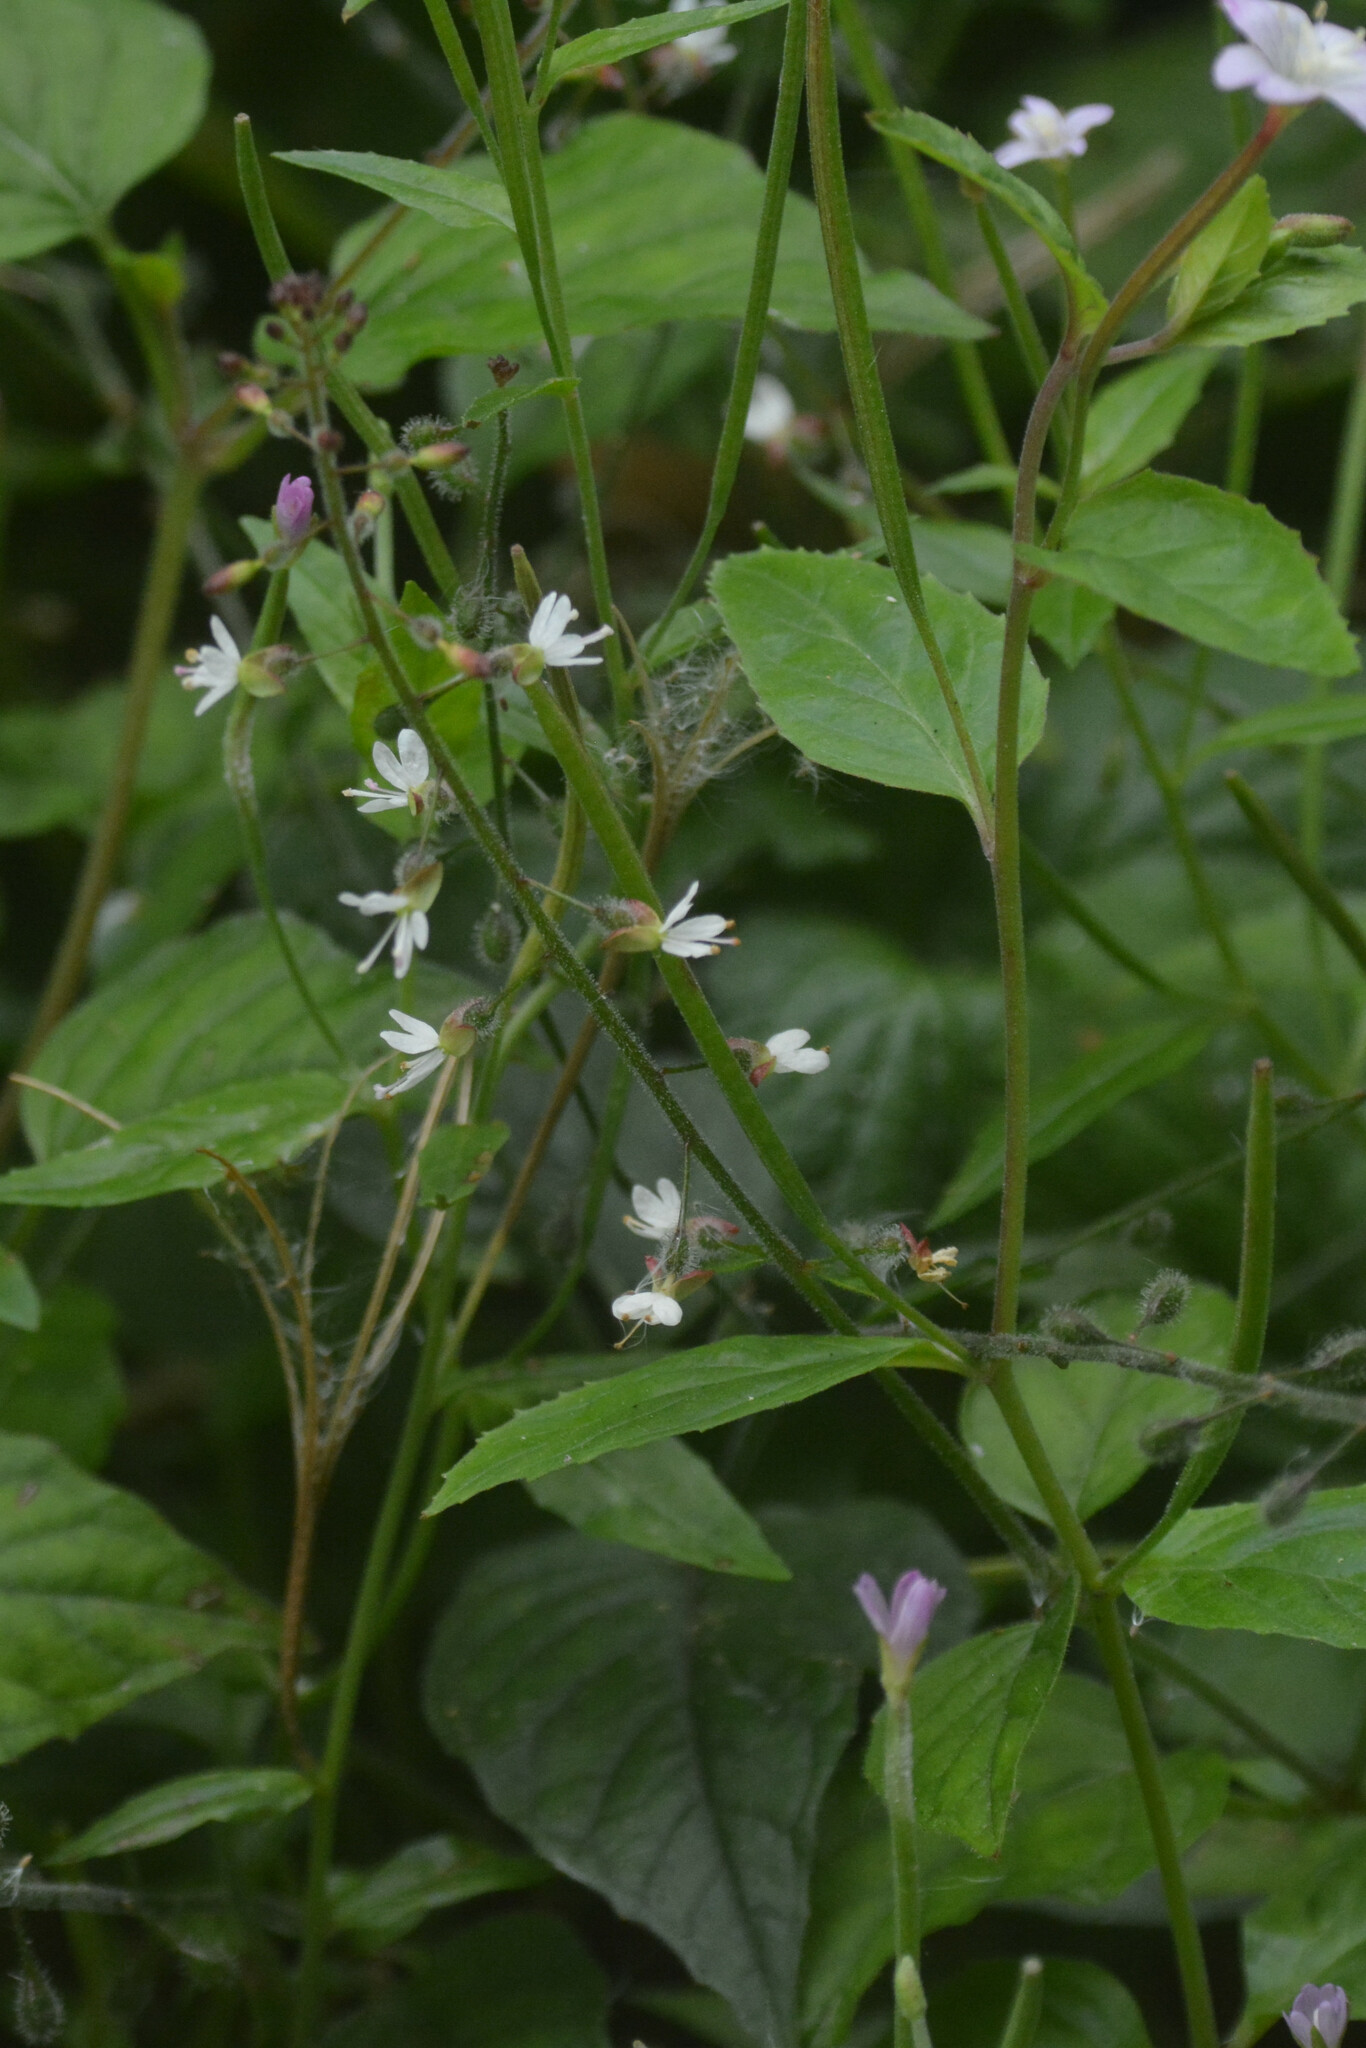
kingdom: Plantae
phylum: Tracheophyta
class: Magnoliopsida
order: Myrtales
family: Onagraceae
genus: Circaea
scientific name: Circaea lutetiana
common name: Enchanter's-nightshade
